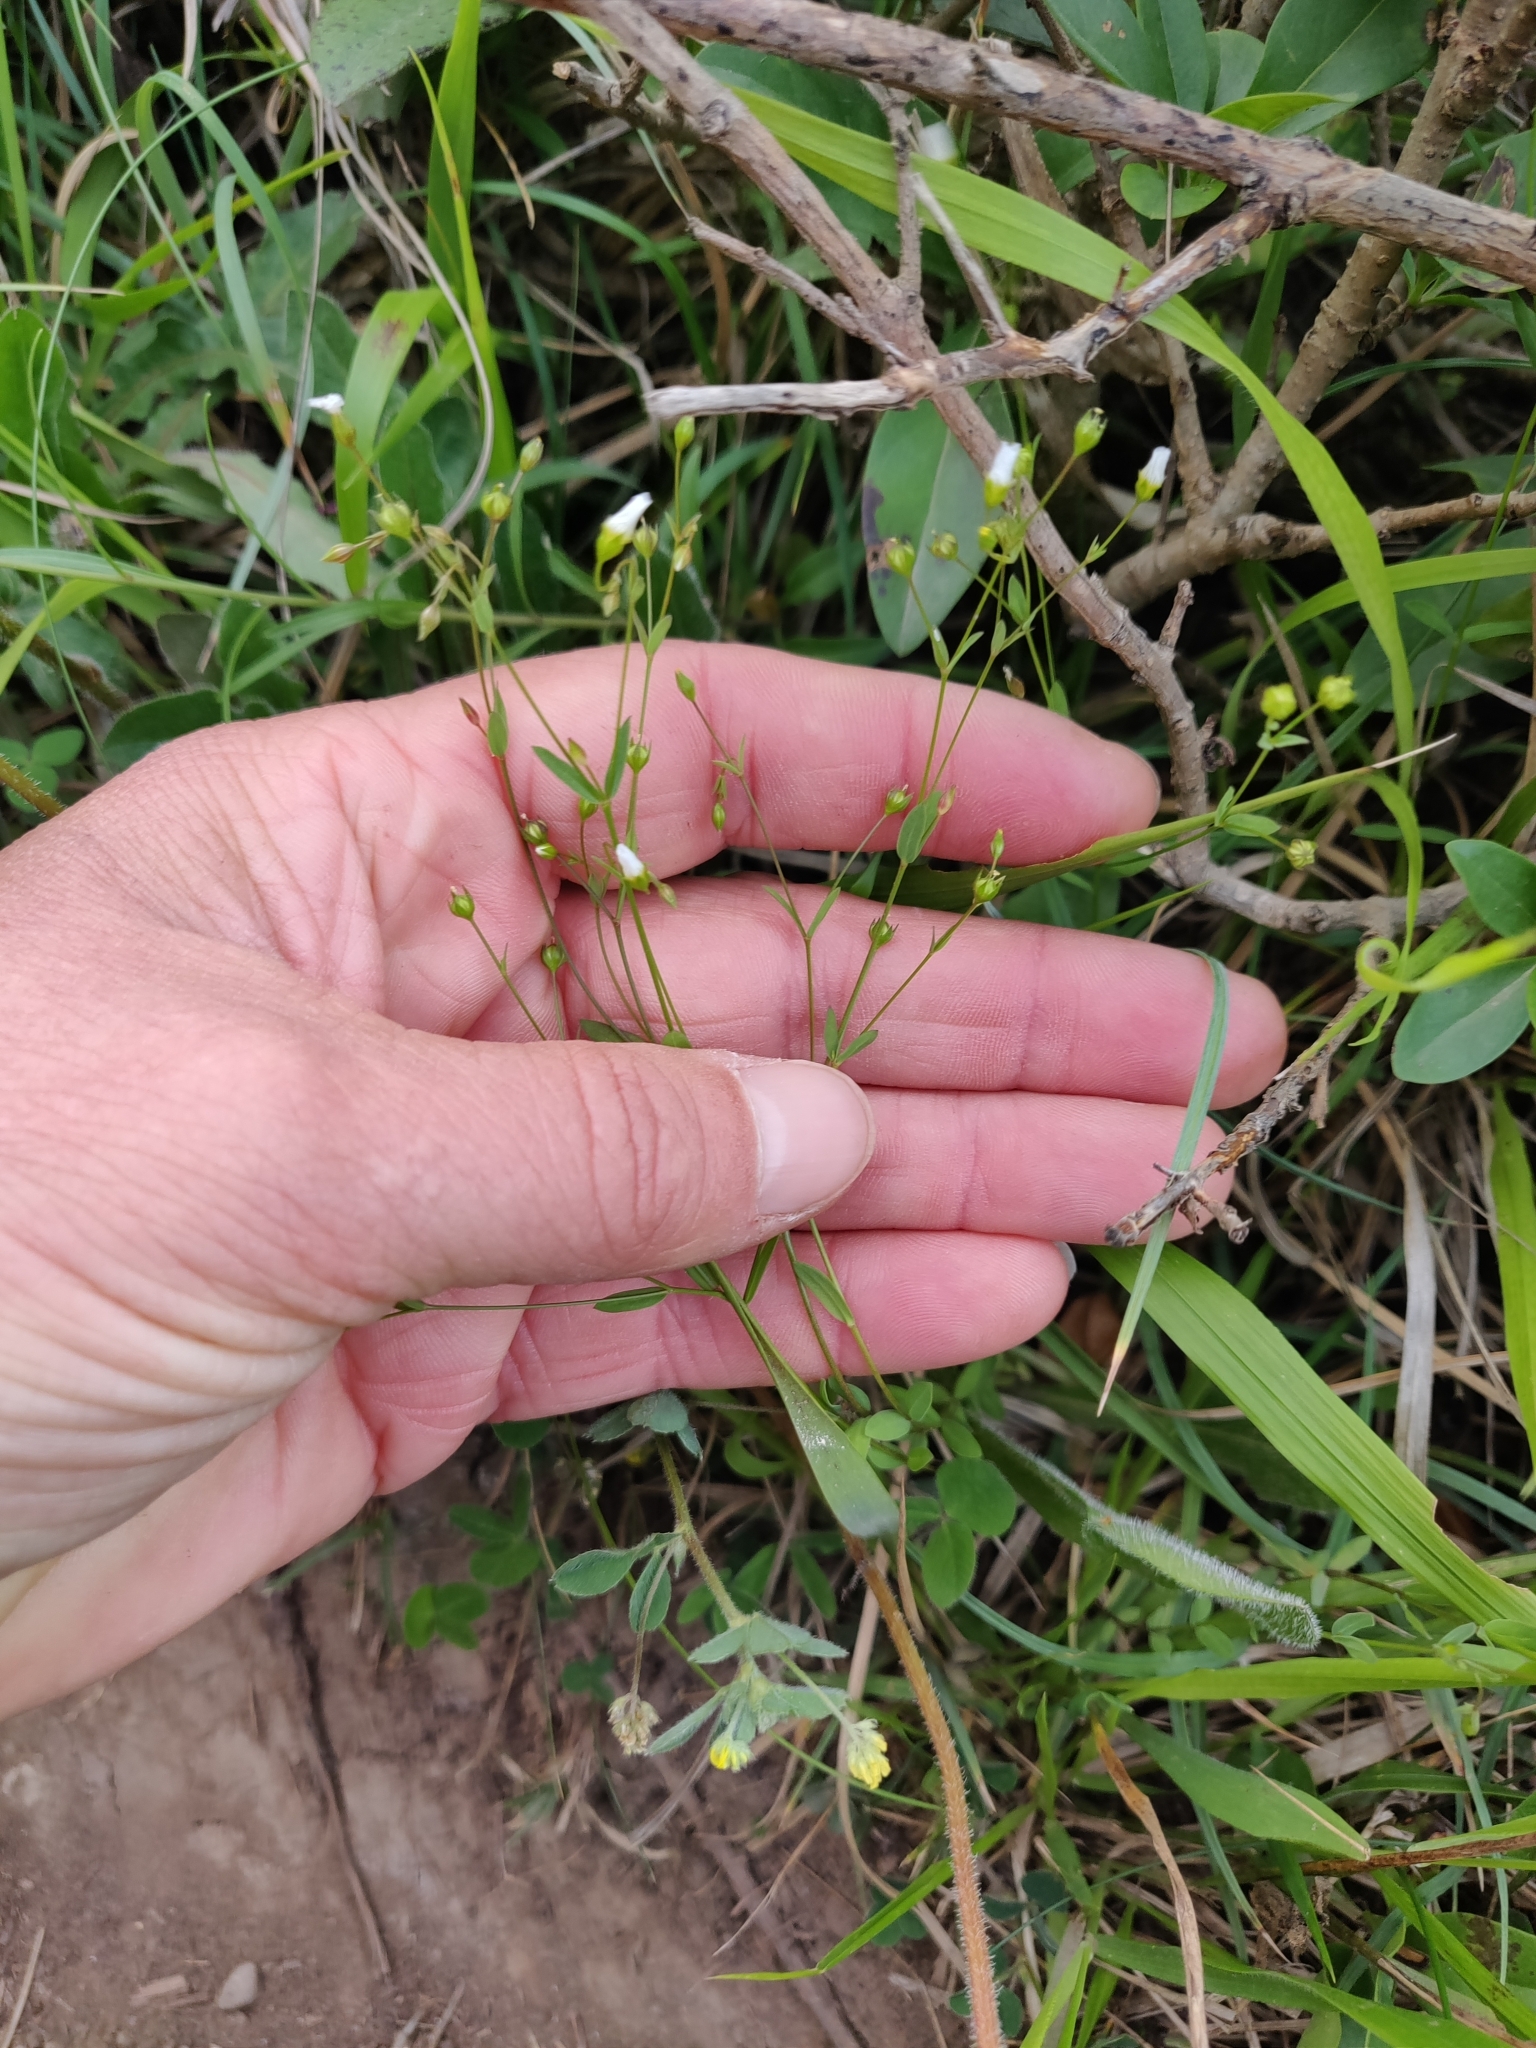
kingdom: Plantae
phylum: Tracheophyta
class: Magnoliopsida
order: Malpighiales
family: Linaceae
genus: Linum
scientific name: Linum catharticum
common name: Fairy flax
